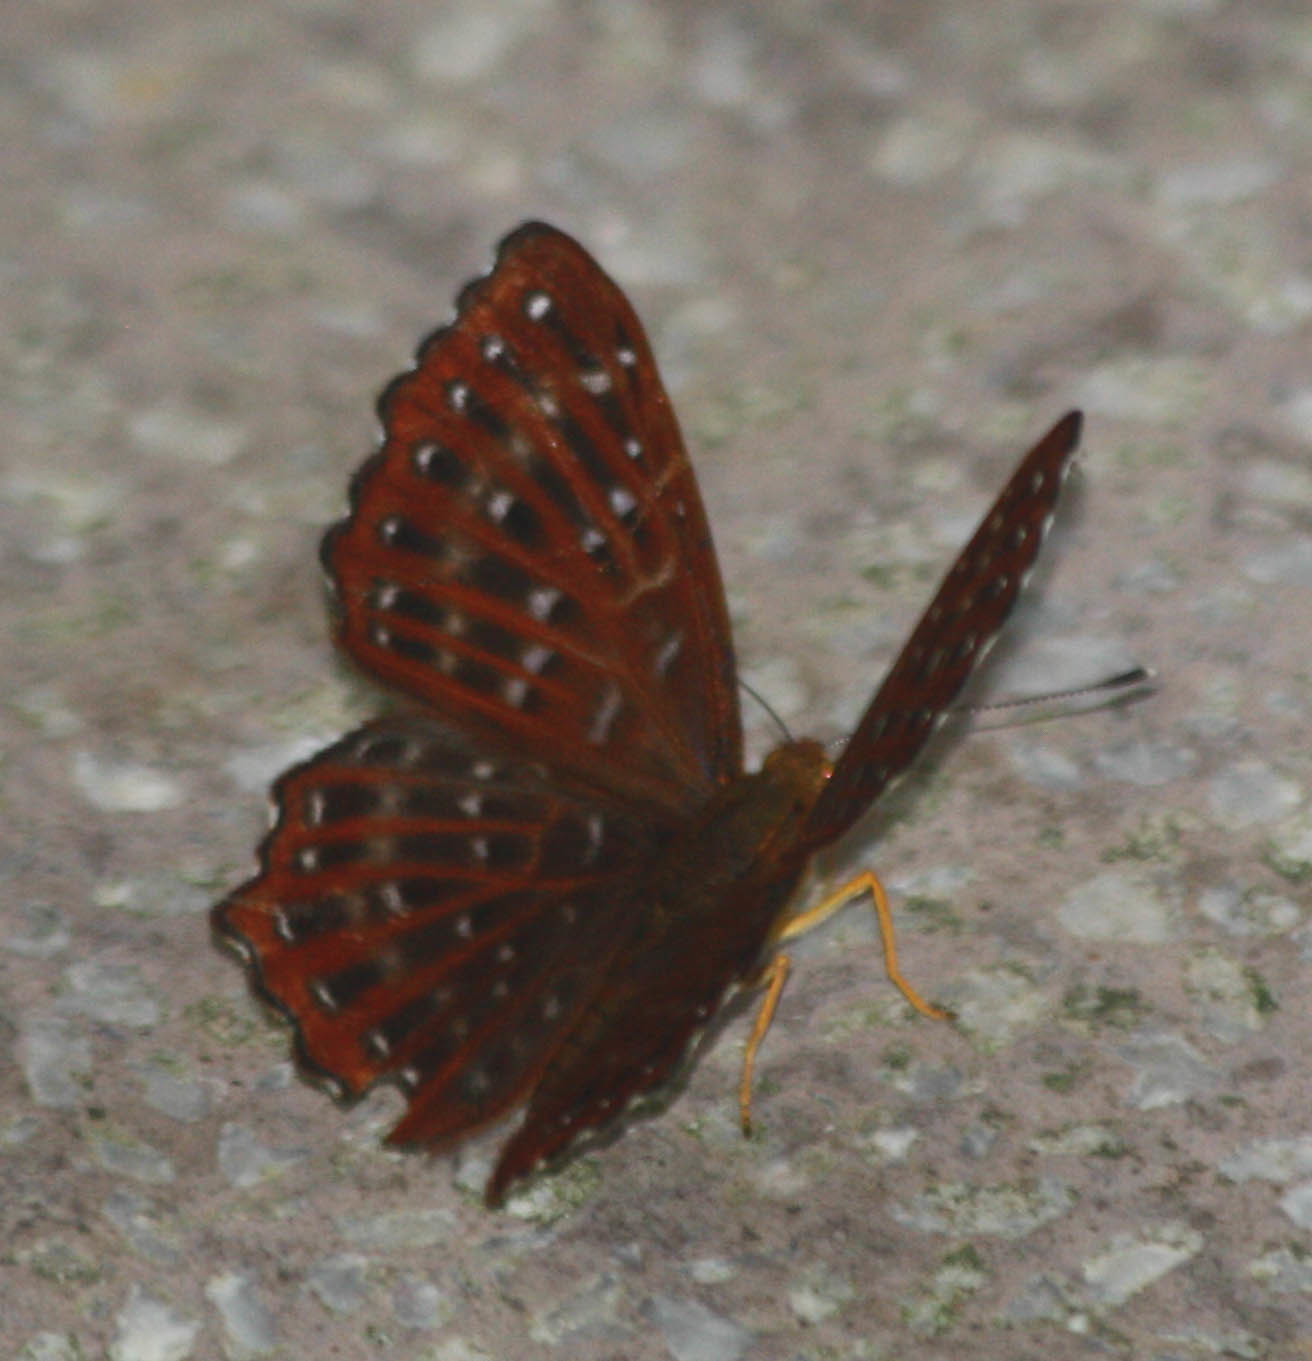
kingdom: Animalia
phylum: Arthropoda
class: Insecta
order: Lepidoptera
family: Riodinidae
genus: Zemeros
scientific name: Zemeros flegyas
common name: Punchinello
